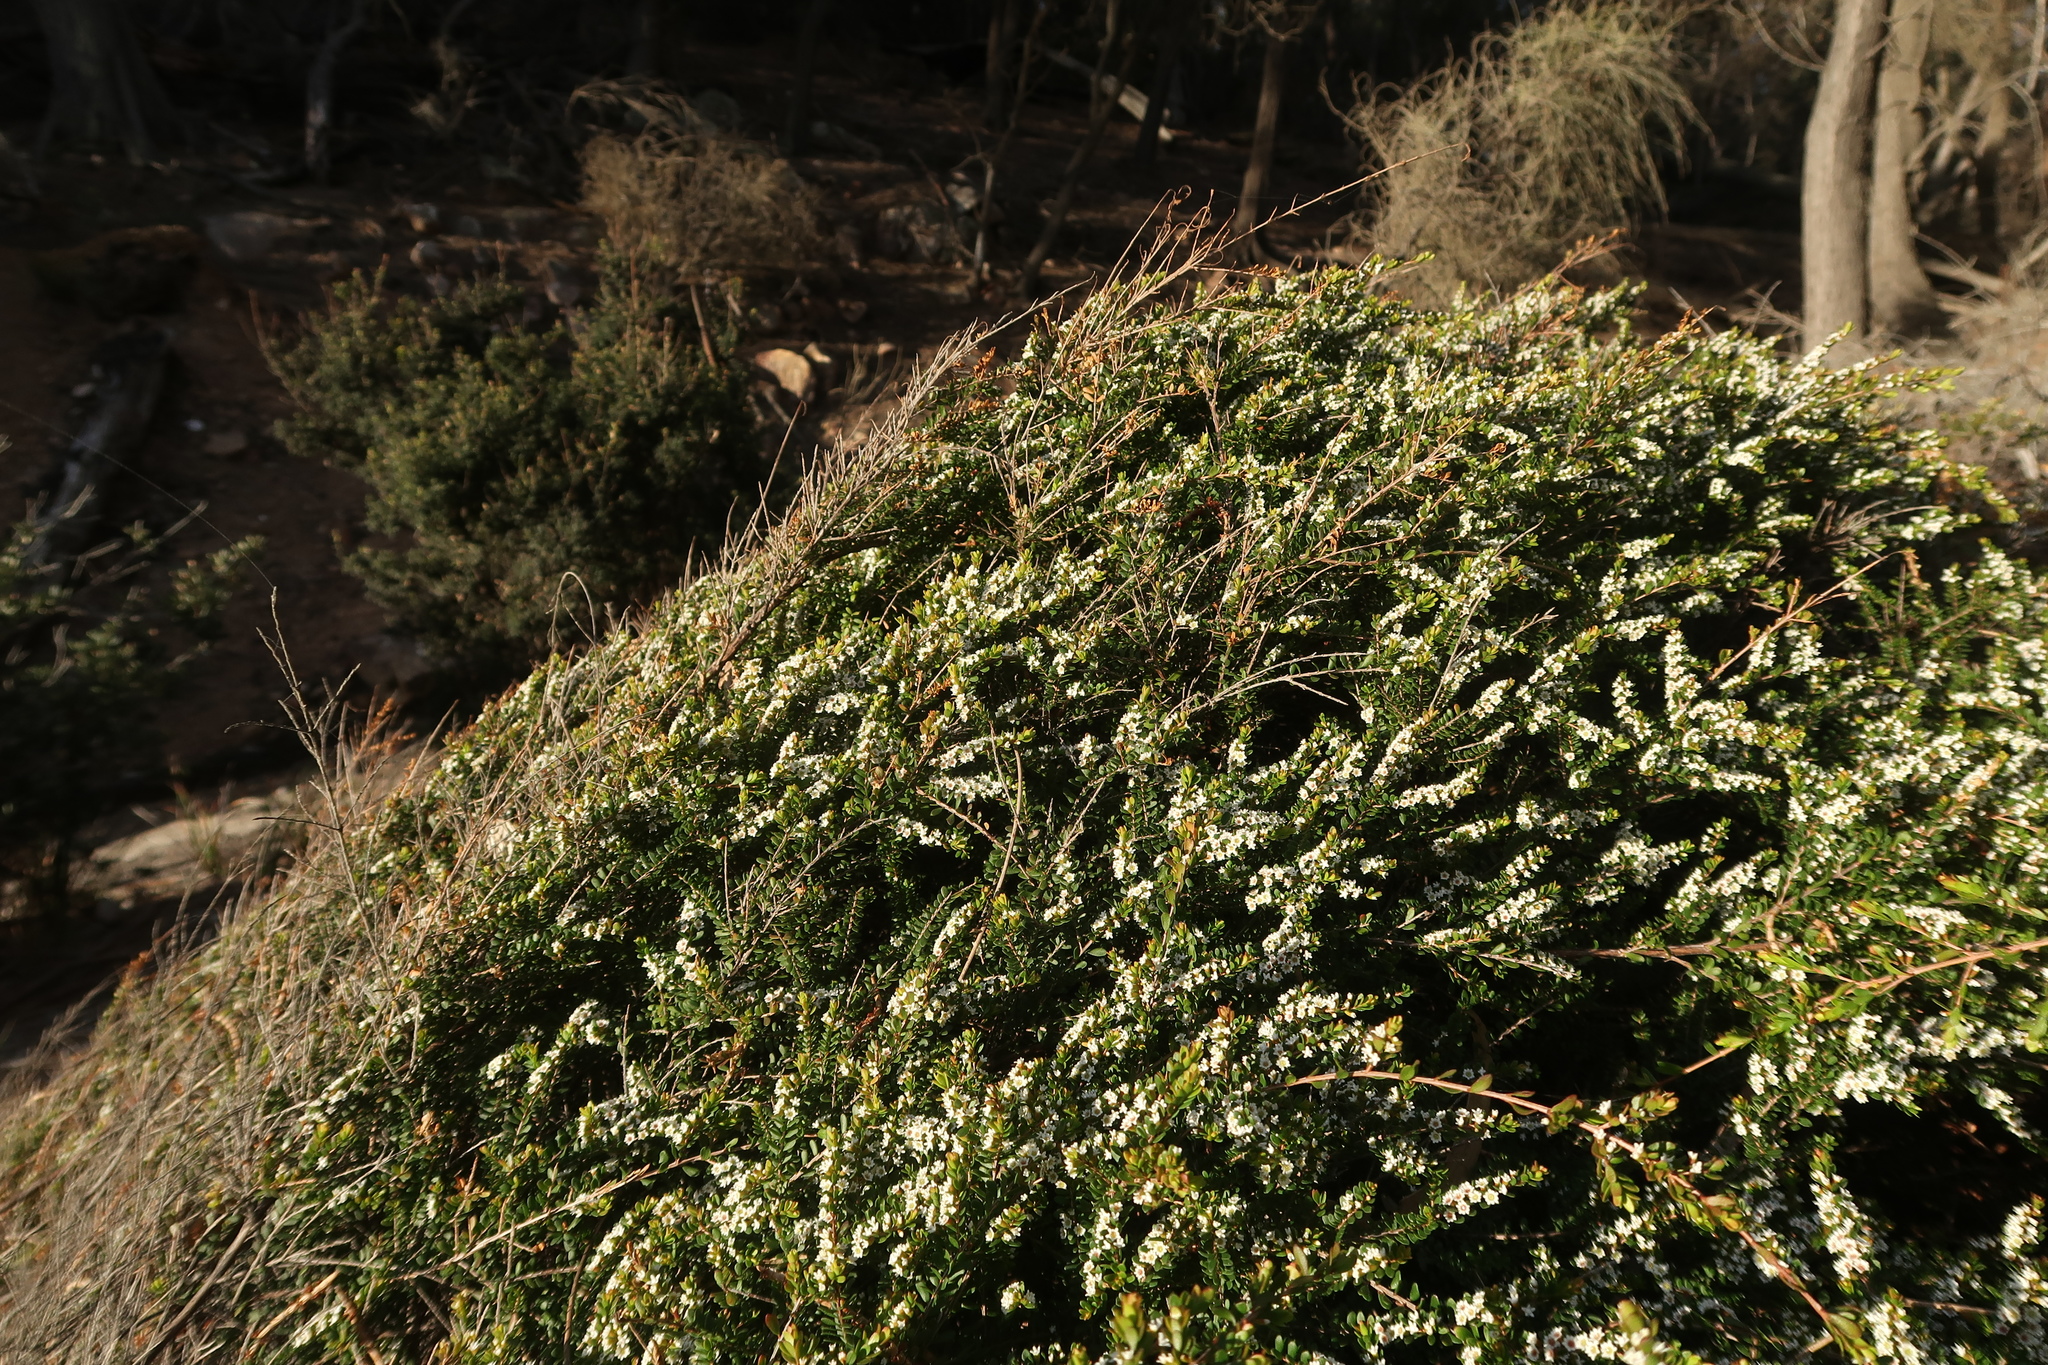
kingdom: Plantae
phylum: Tracheophyta
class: Magnoliopsida
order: Myrtales
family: Myrtaceae
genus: Thryptomene
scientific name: Thryptomene micrantha
